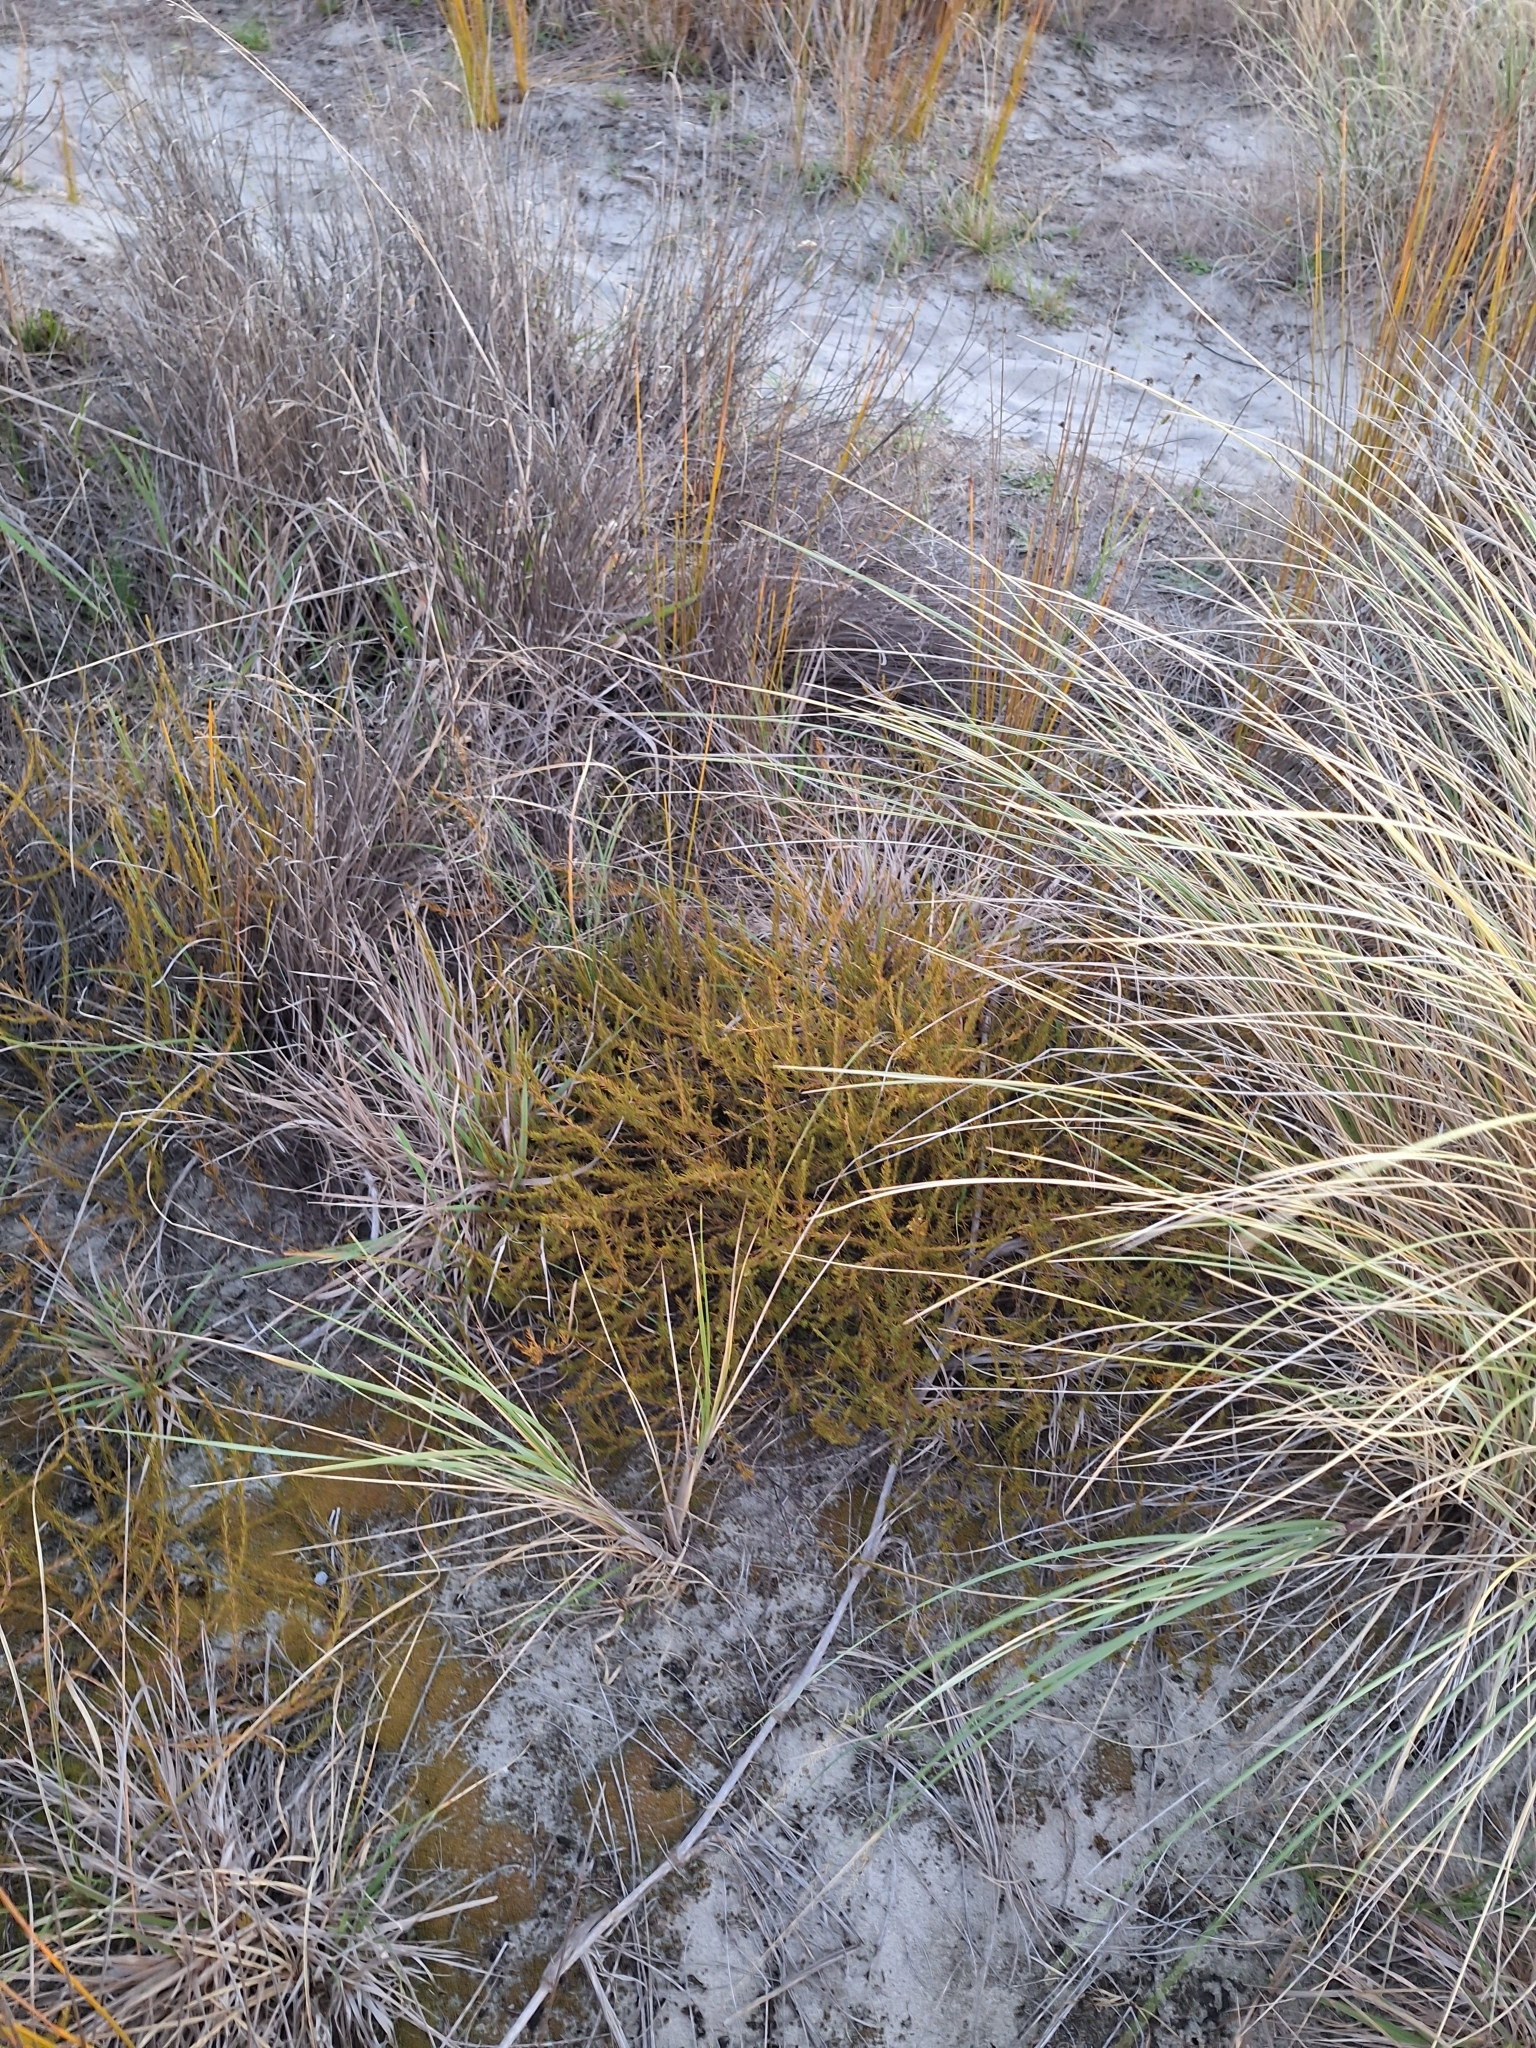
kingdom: Plantae
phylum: Tracheophyta
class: Magnoliopsida
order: Gentianales
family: Rubiaceae
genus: Coprosma
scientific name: Coprosma acerosa
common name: Sand coprosma
